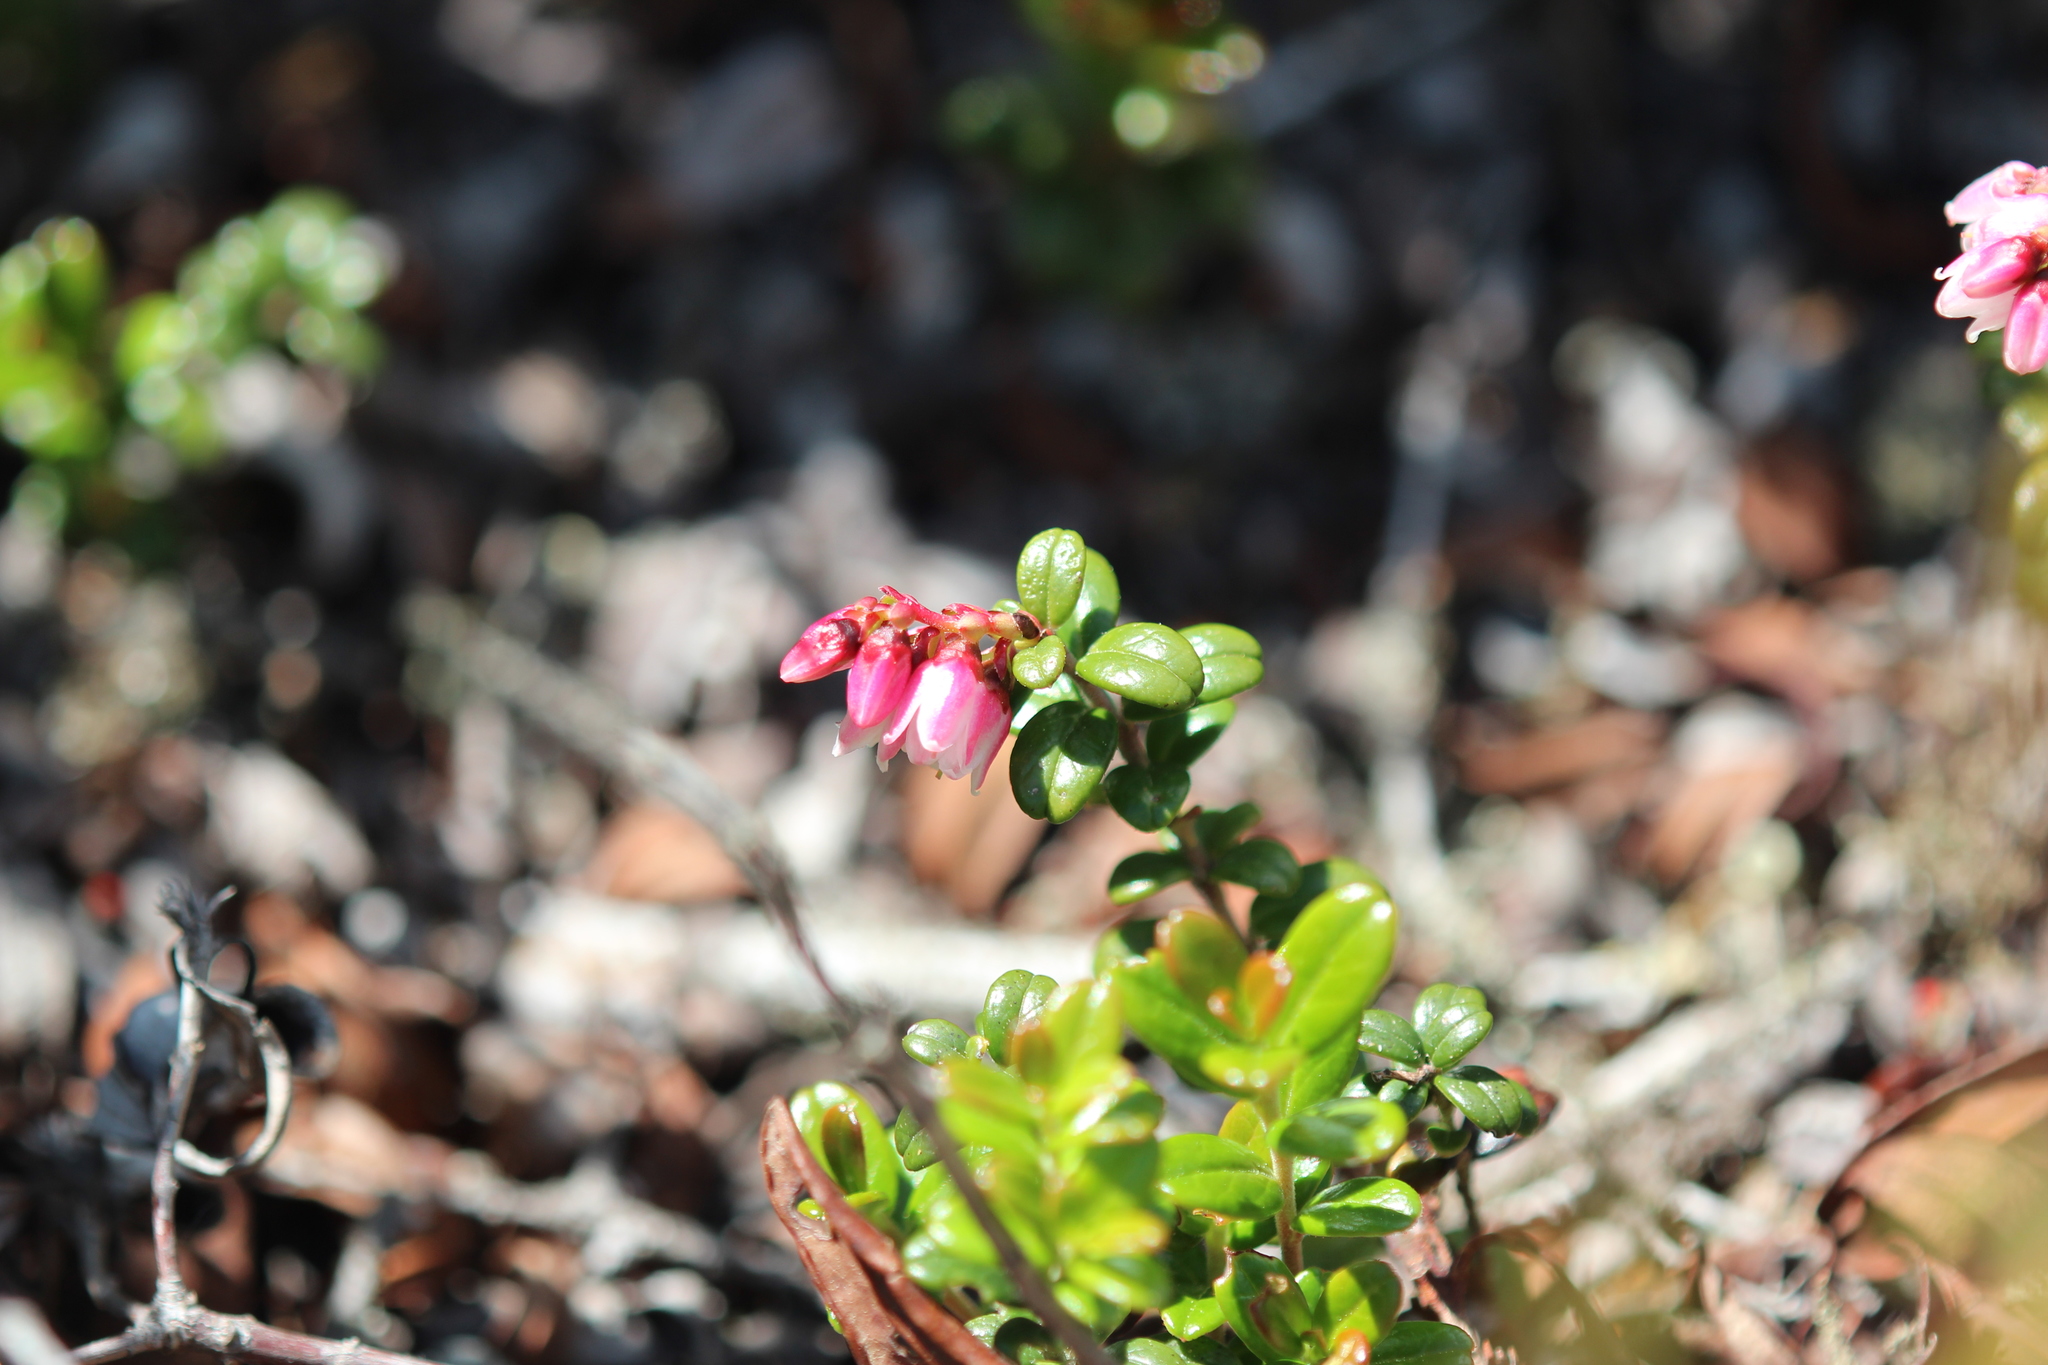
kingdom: Plantae
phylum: Tracheophyta
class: Magnoliopsida
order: Ericales
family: Ericaceae
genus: Vaccinium
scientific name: Vaccinium vitis-idaea
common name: Cowberry
